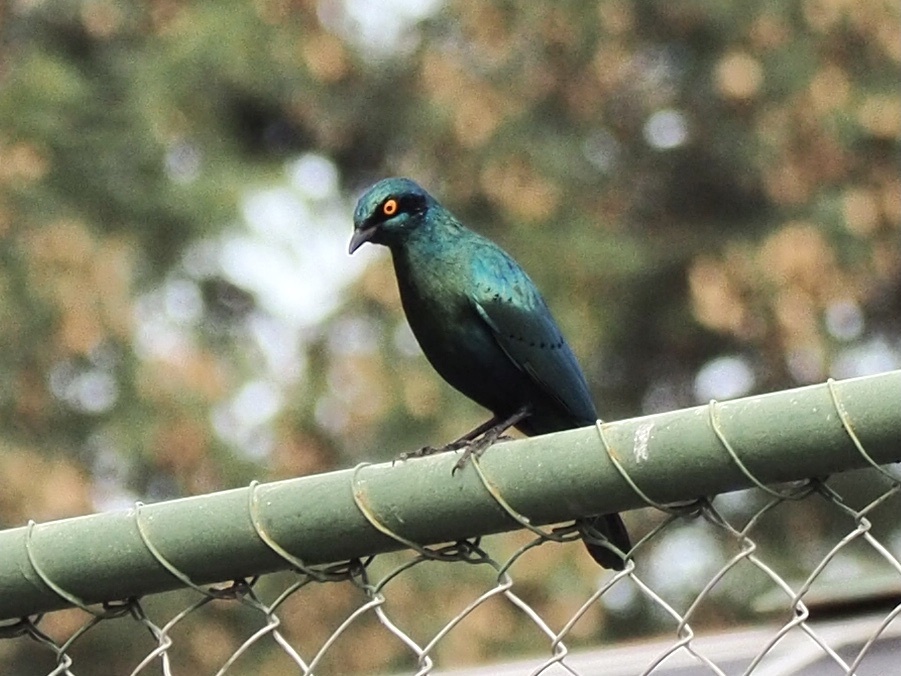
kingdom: Animalia
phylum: Chordata
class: Aves
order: Passeriformes
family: Sturnidae
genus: Lamprotornis
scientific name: Lamprotornis chalybaeus
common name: Greater blue-eared starling
